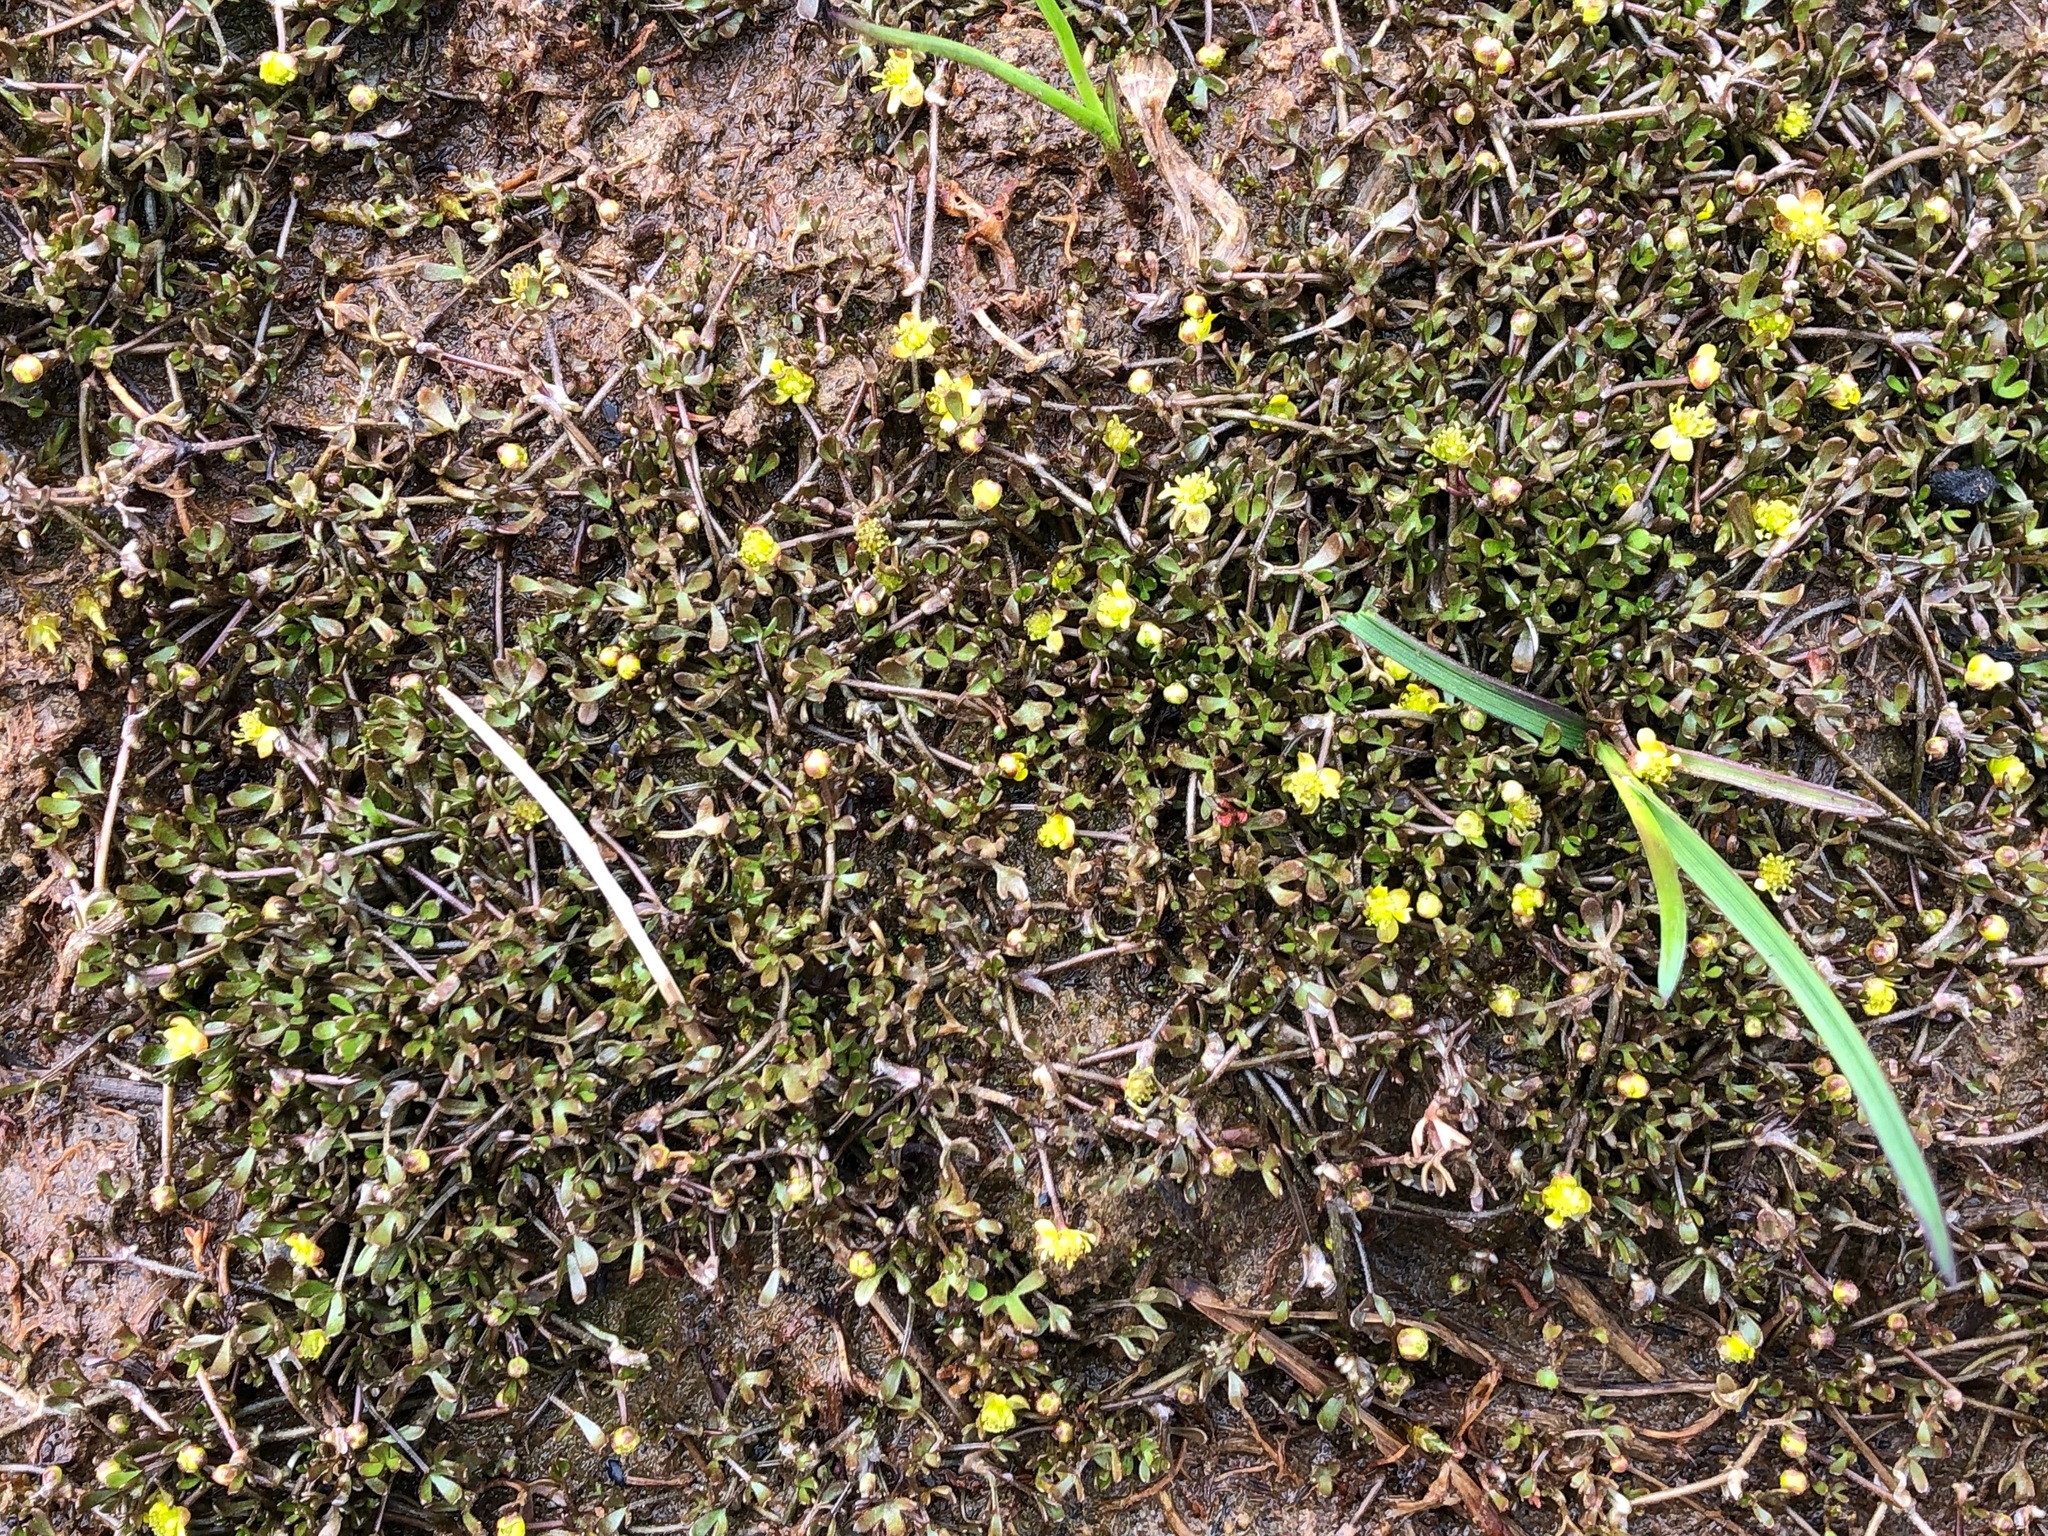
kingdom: Plantae
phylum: Tracheophyta
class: Magnoliopsida
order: Ranunculales
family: Ranunculaceae
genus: Ranunculus
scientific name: Ranunculus hyperboreus
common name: Arctic buttercup
